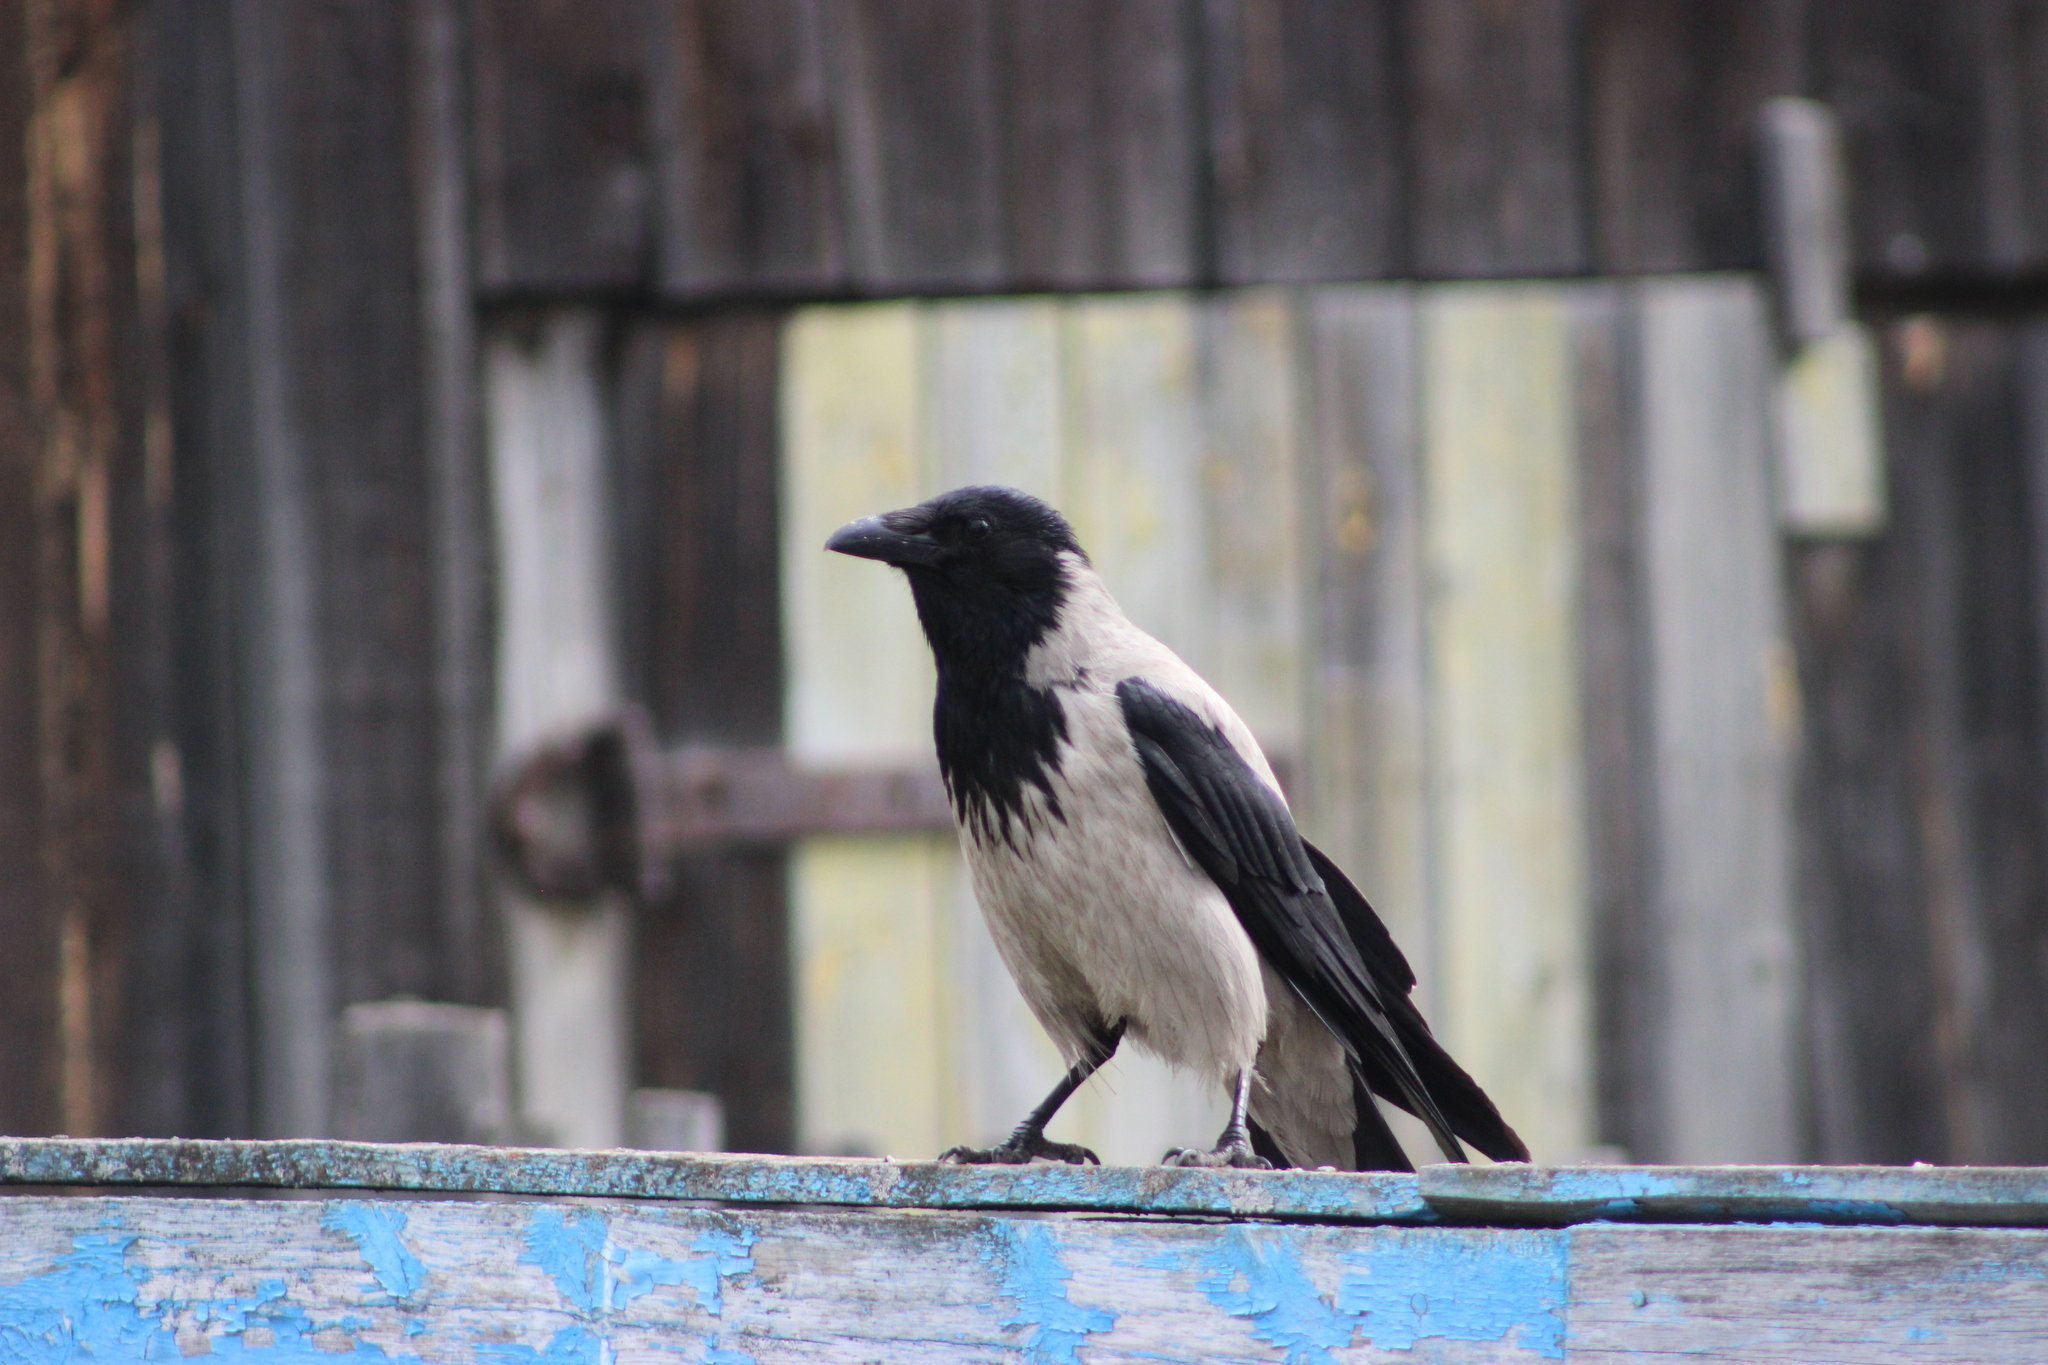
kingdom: Animalia
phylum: Chordata
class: Aves
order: Passeriformes
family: Corvidae
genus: Corvus
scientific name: Corvus cornix
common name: Hooded crow
